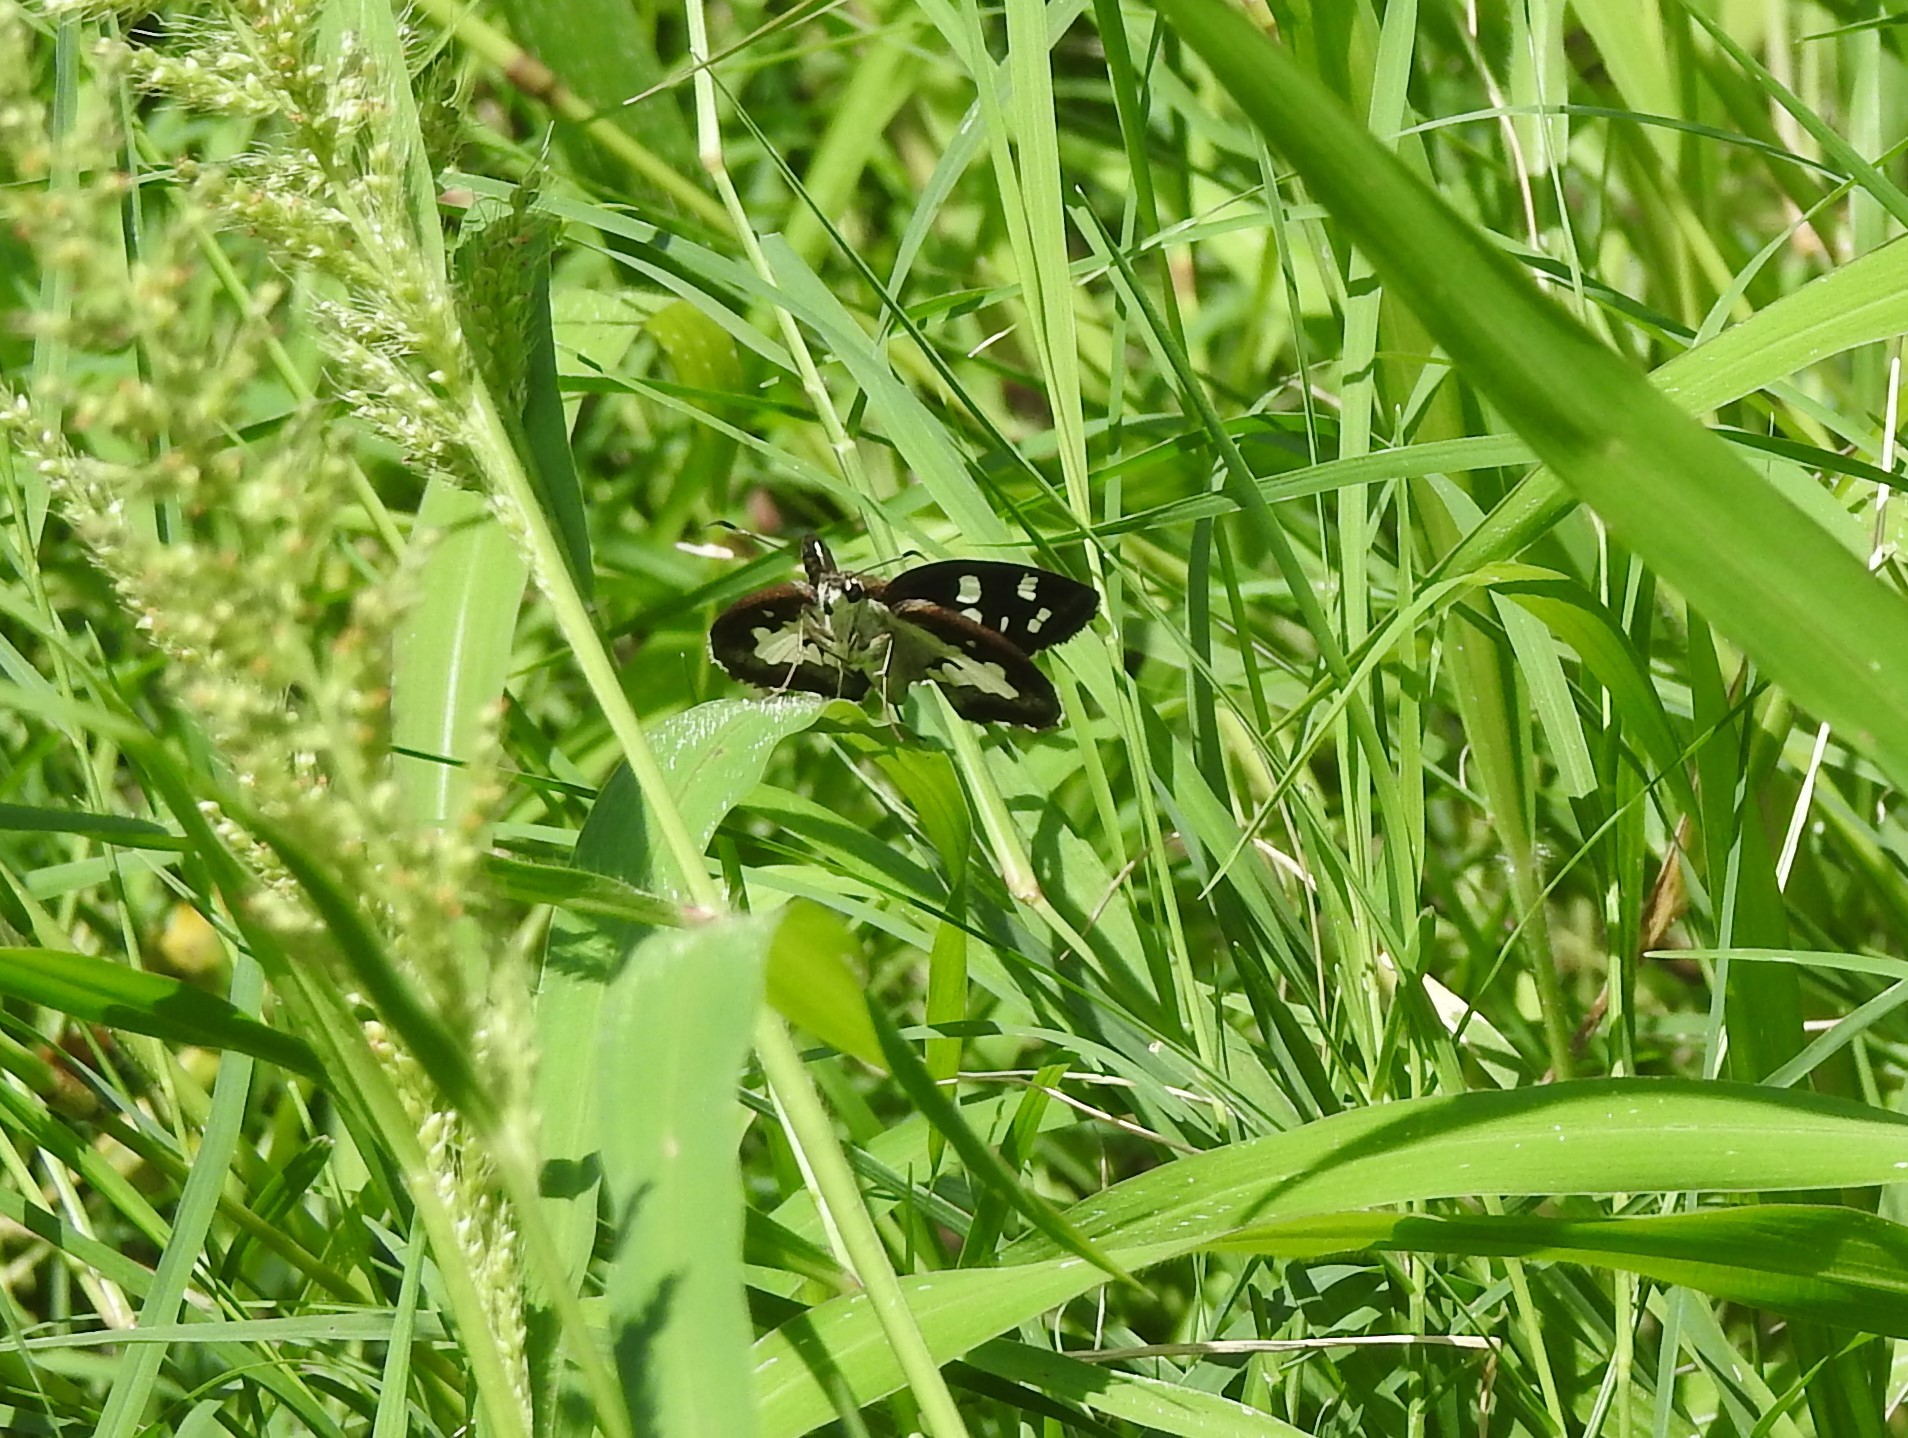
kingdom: Animalia
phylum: Arthropoda
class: Insecta
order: Lepidoptera
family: Hesperiidae
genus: Udaspes
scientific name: Udaspes folus
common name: Grass demon
